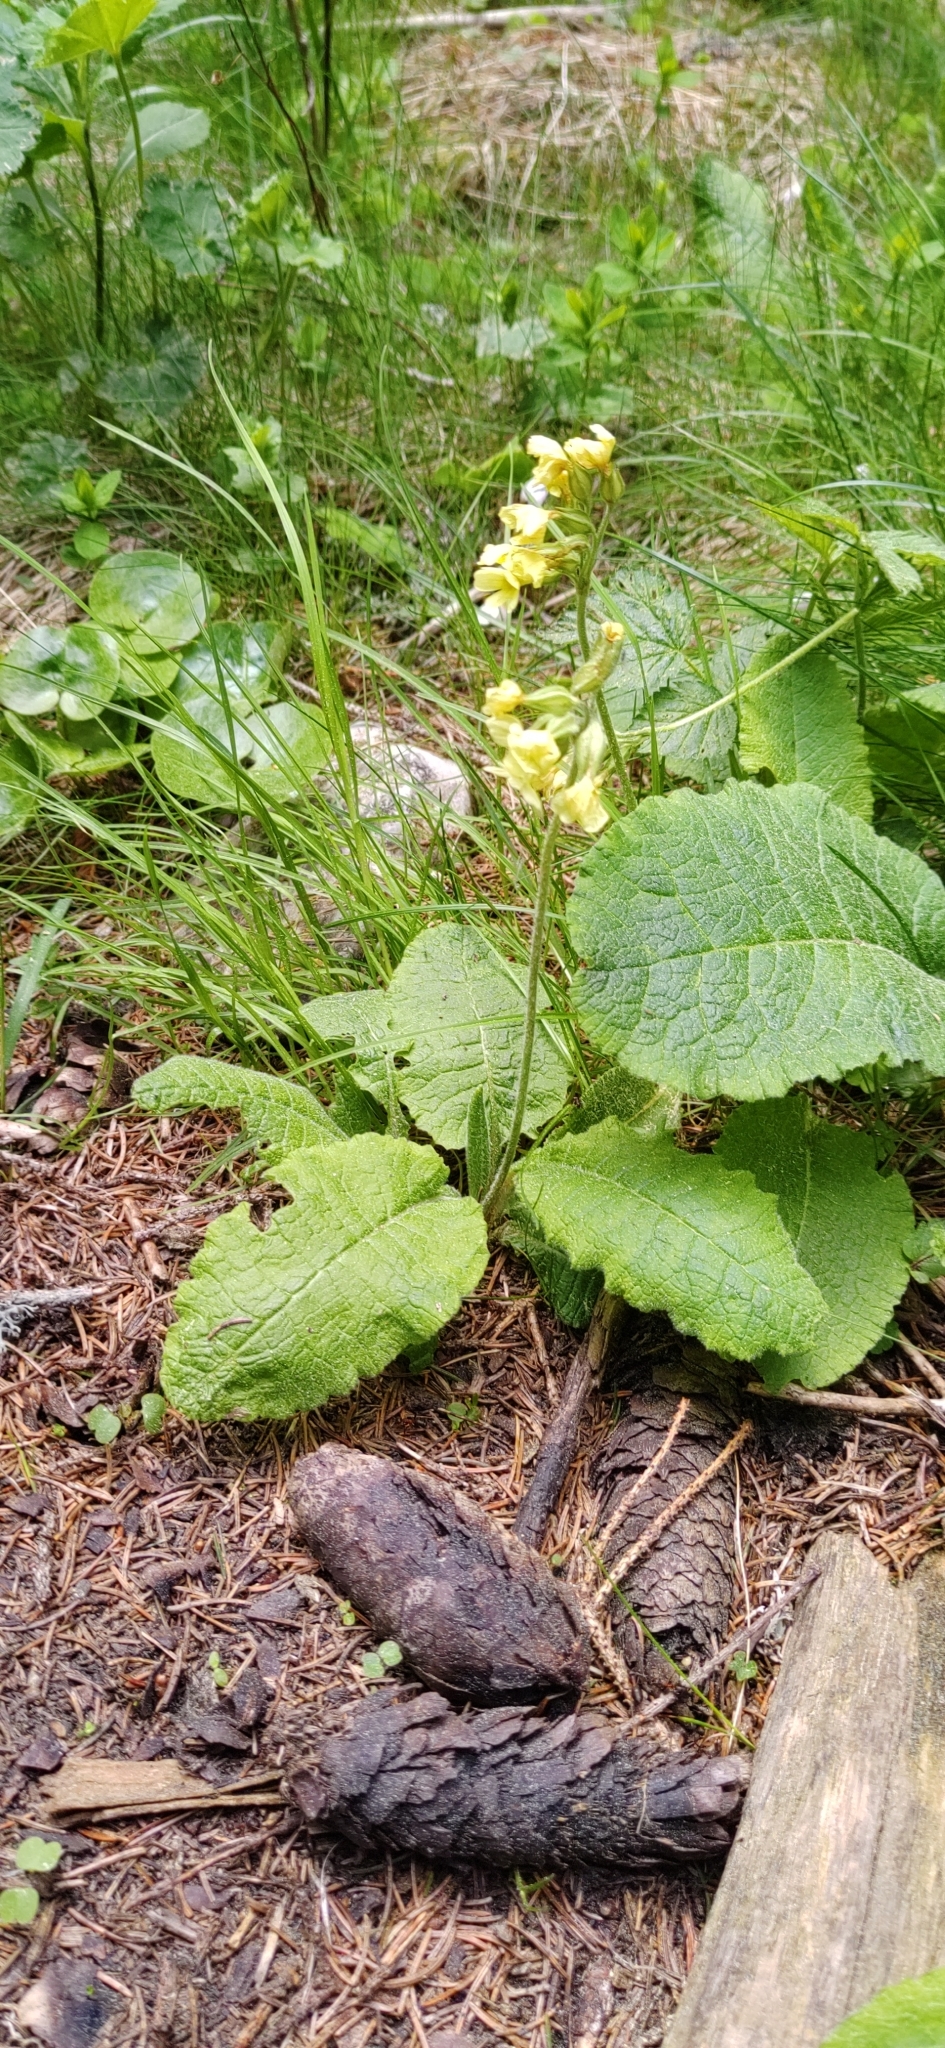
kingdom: Plantae
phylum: Tracheophyta
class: Magnoliopsida
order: Ericales
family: Primulaceae
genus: Primula
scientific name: Primula elatior
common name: Oxlip
